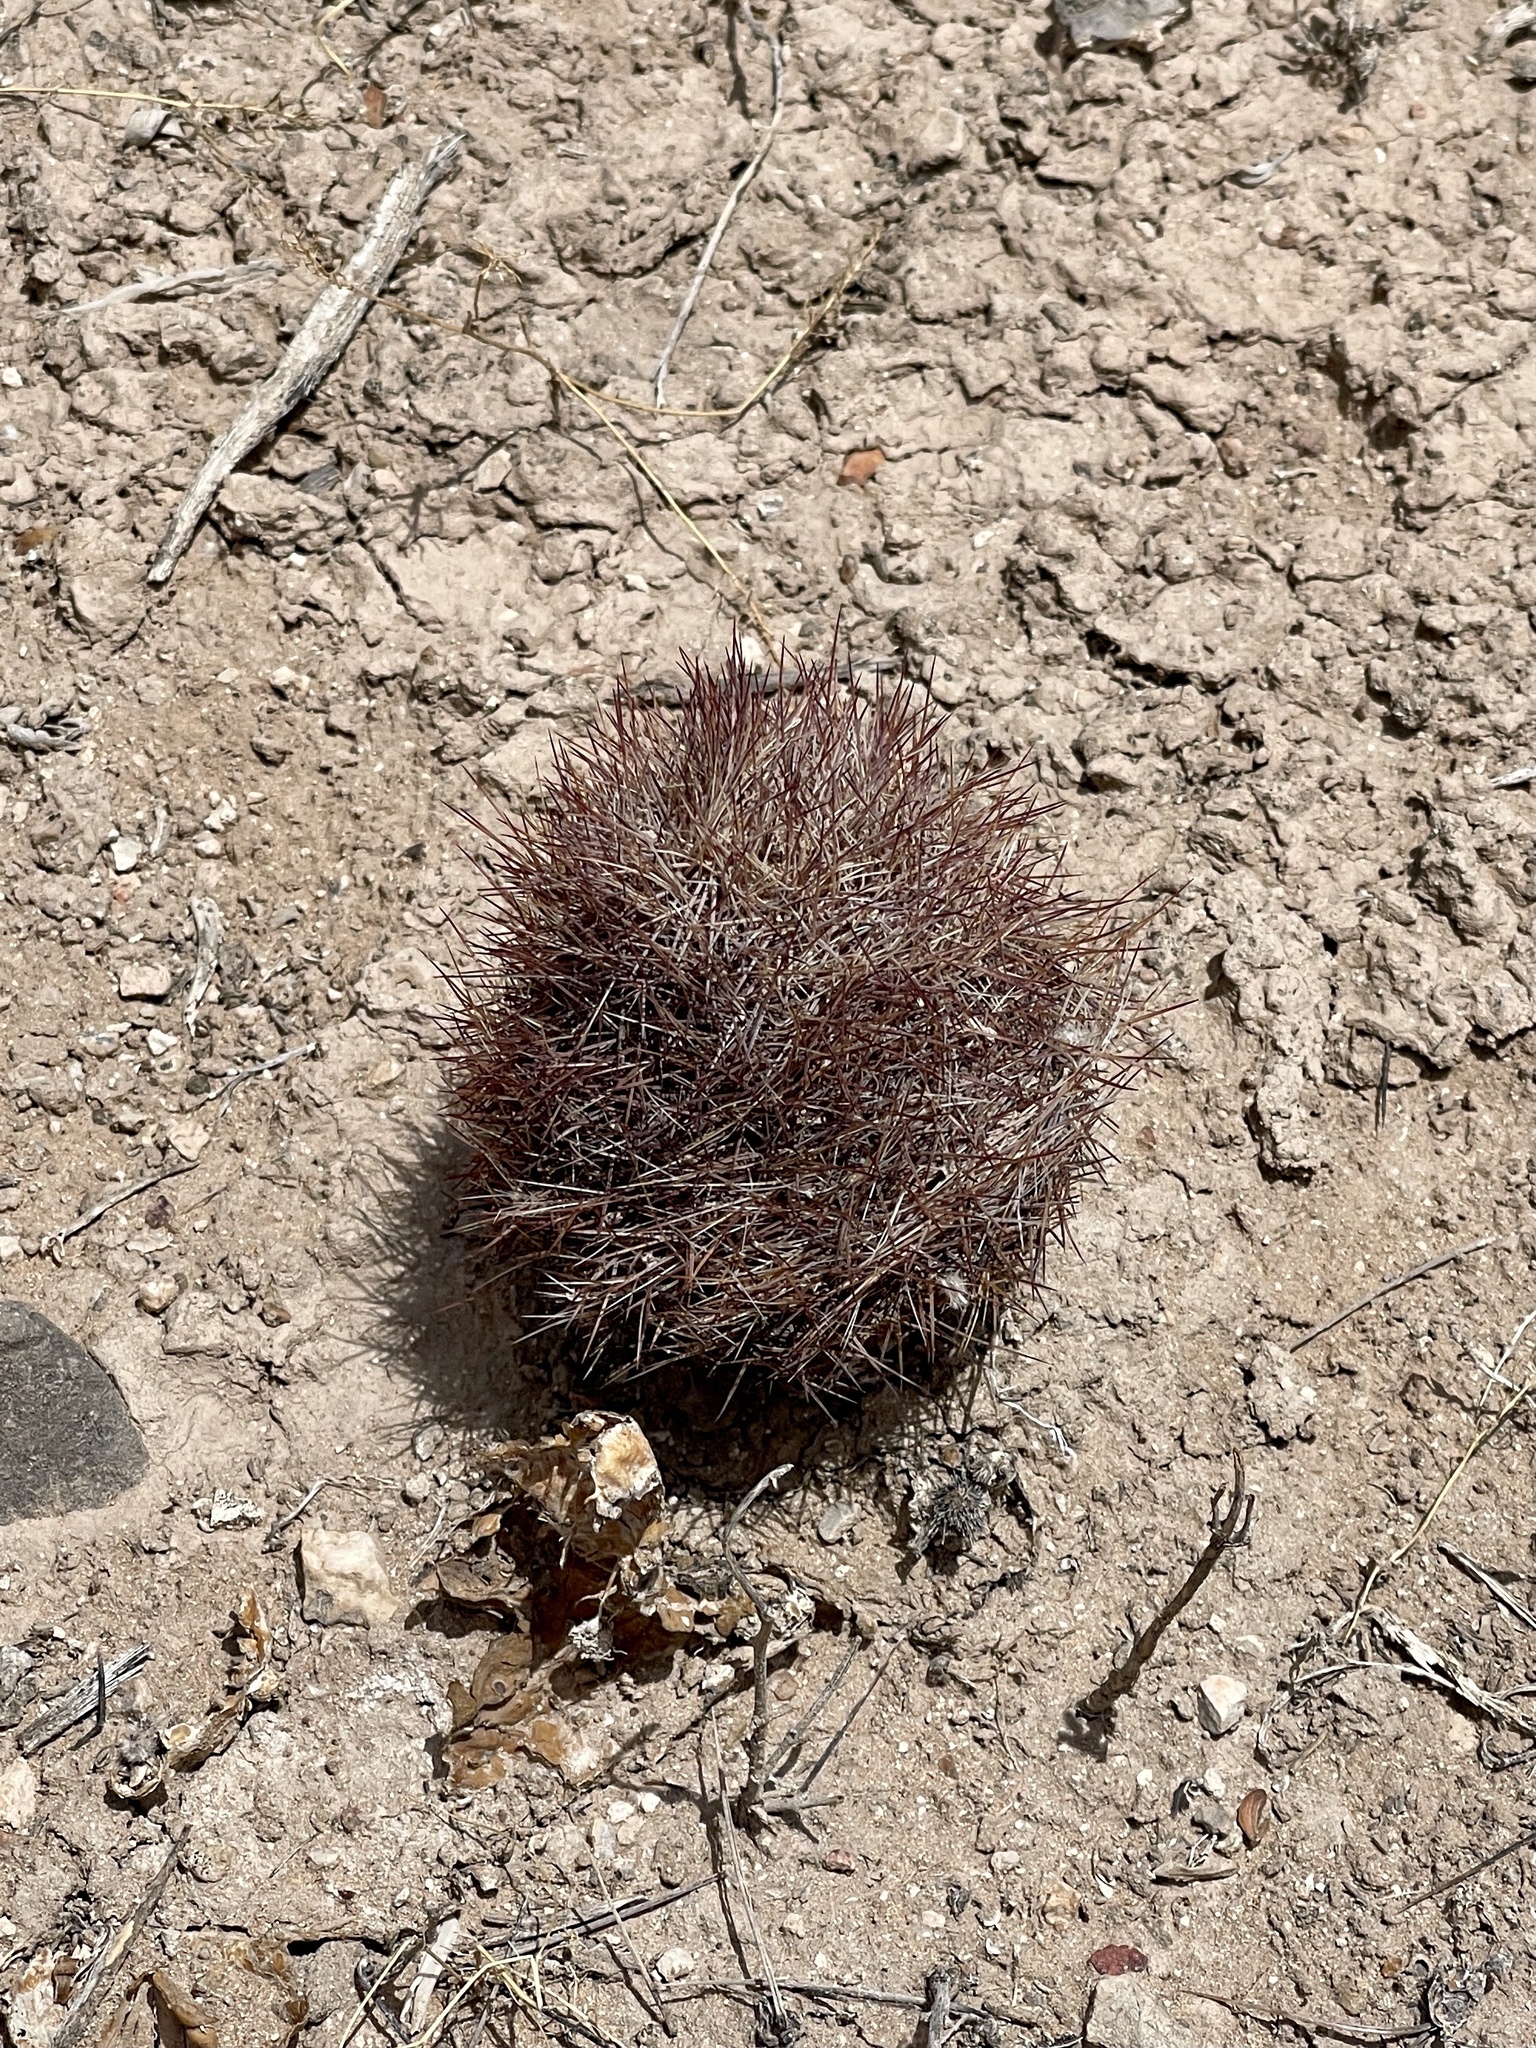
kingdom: Plantae
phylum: Tracheophyta
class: Magnoliopsida
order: Caryophyllales
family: Cactaceae
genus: Sclerocactus
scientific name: Sclerocactus intertextus
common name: White fish-hook cactus
